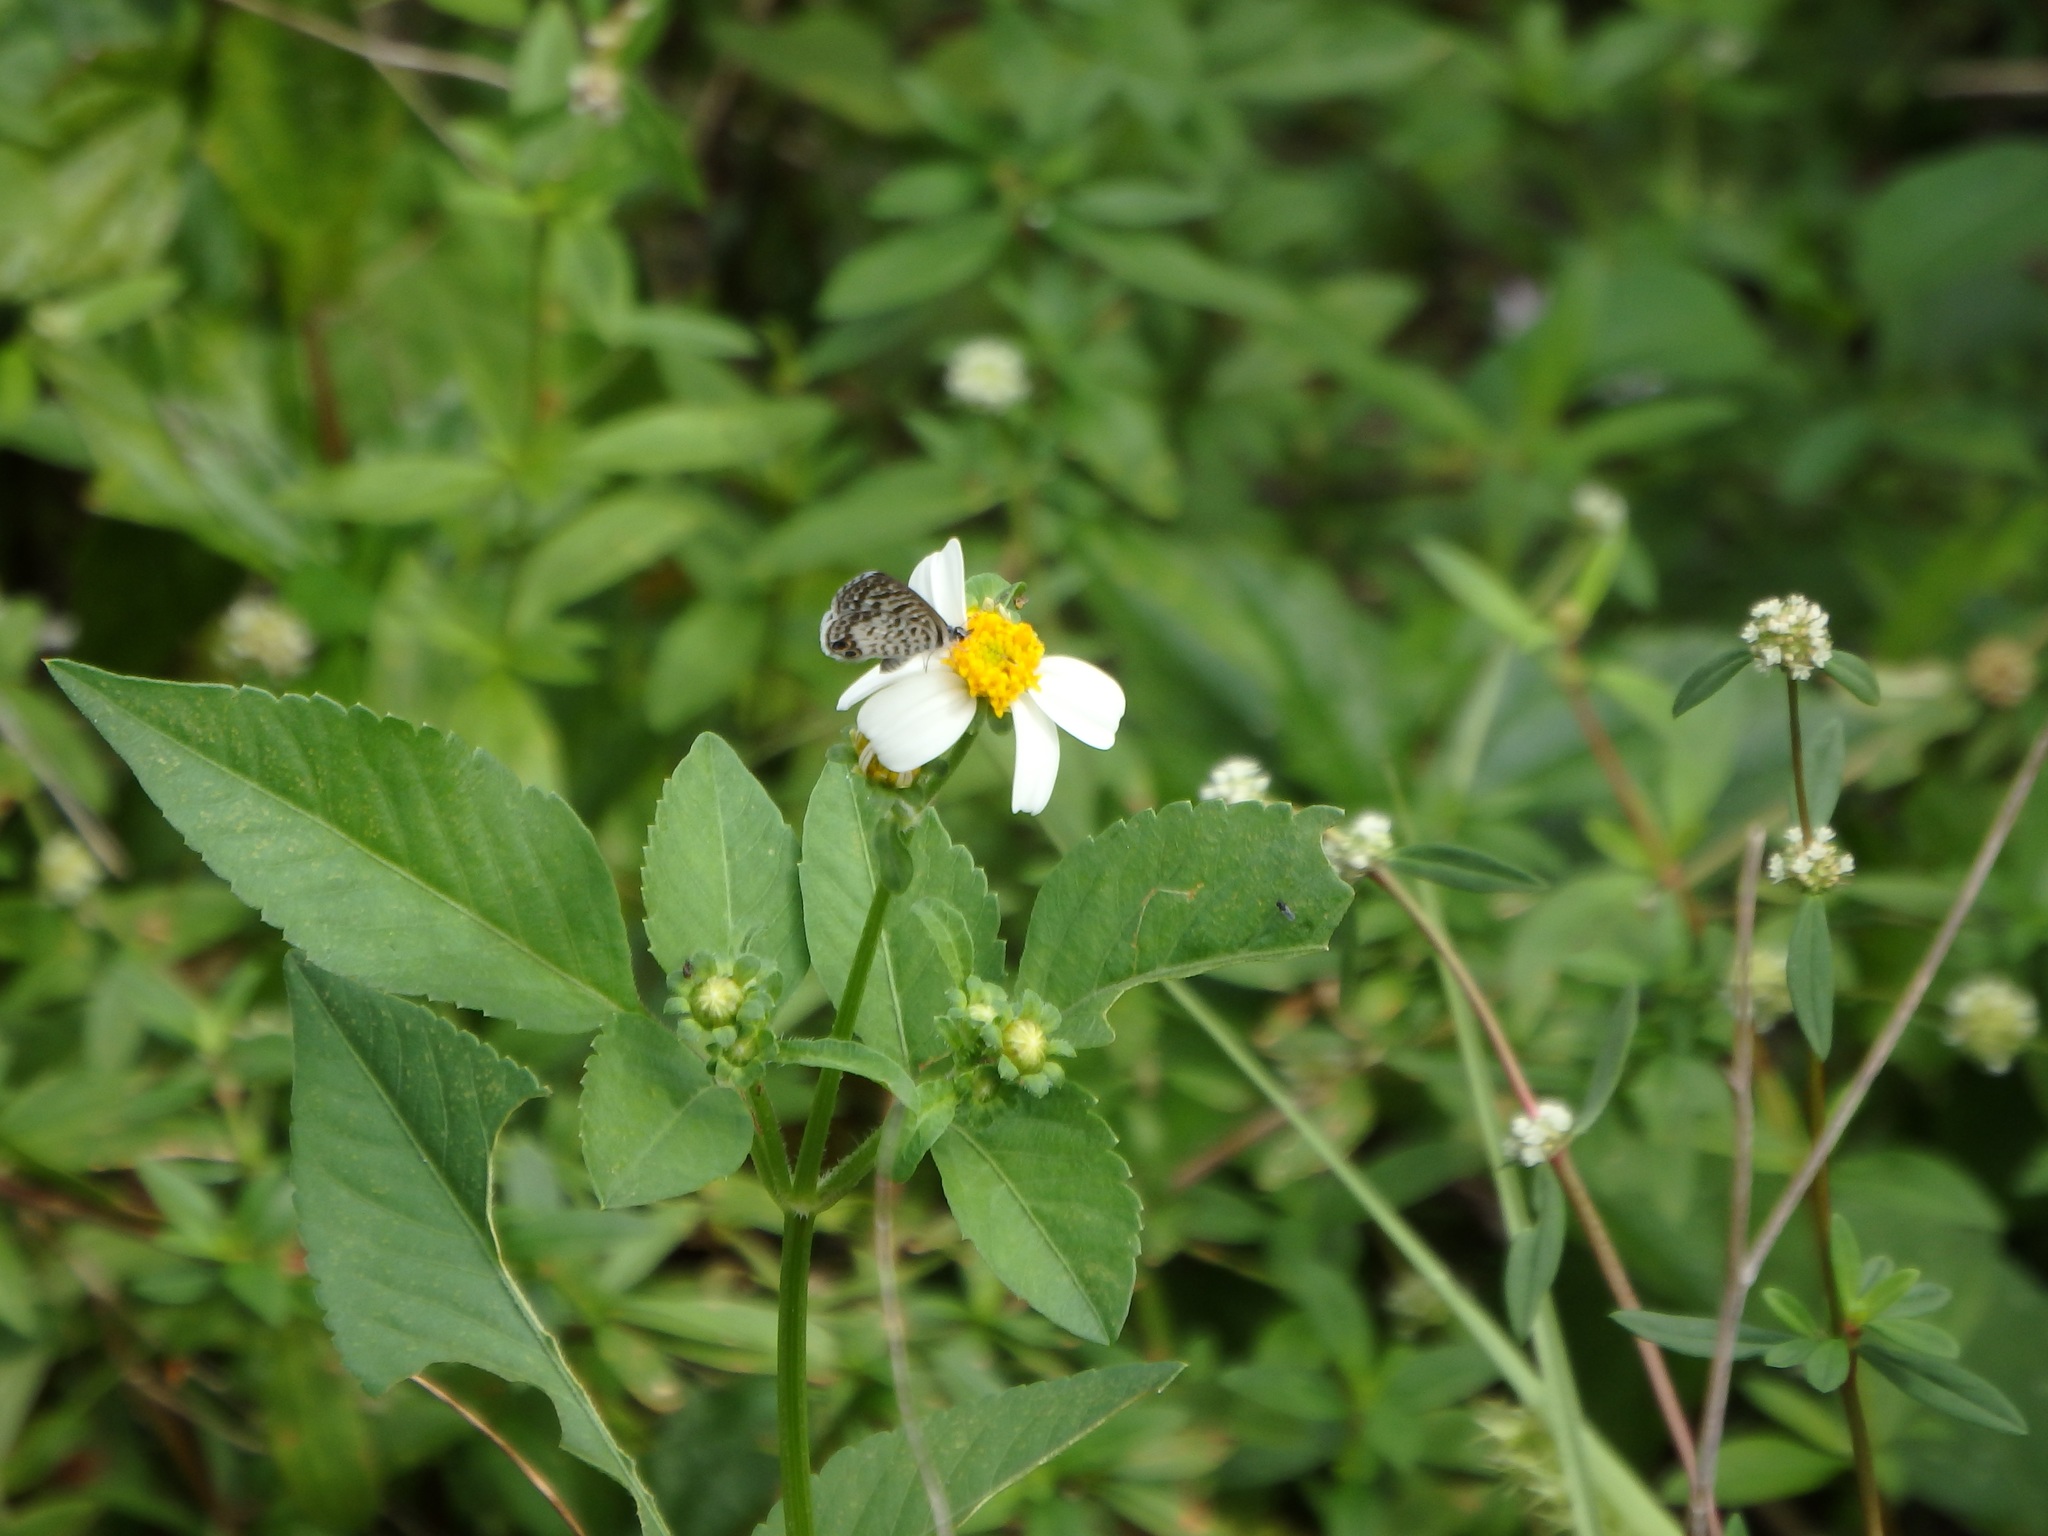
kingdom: Plantae
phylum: Tracheophyta
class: Magnoliopsida
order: Asterales
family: Asteraceae
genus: Bidens
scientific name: Bidens alba
